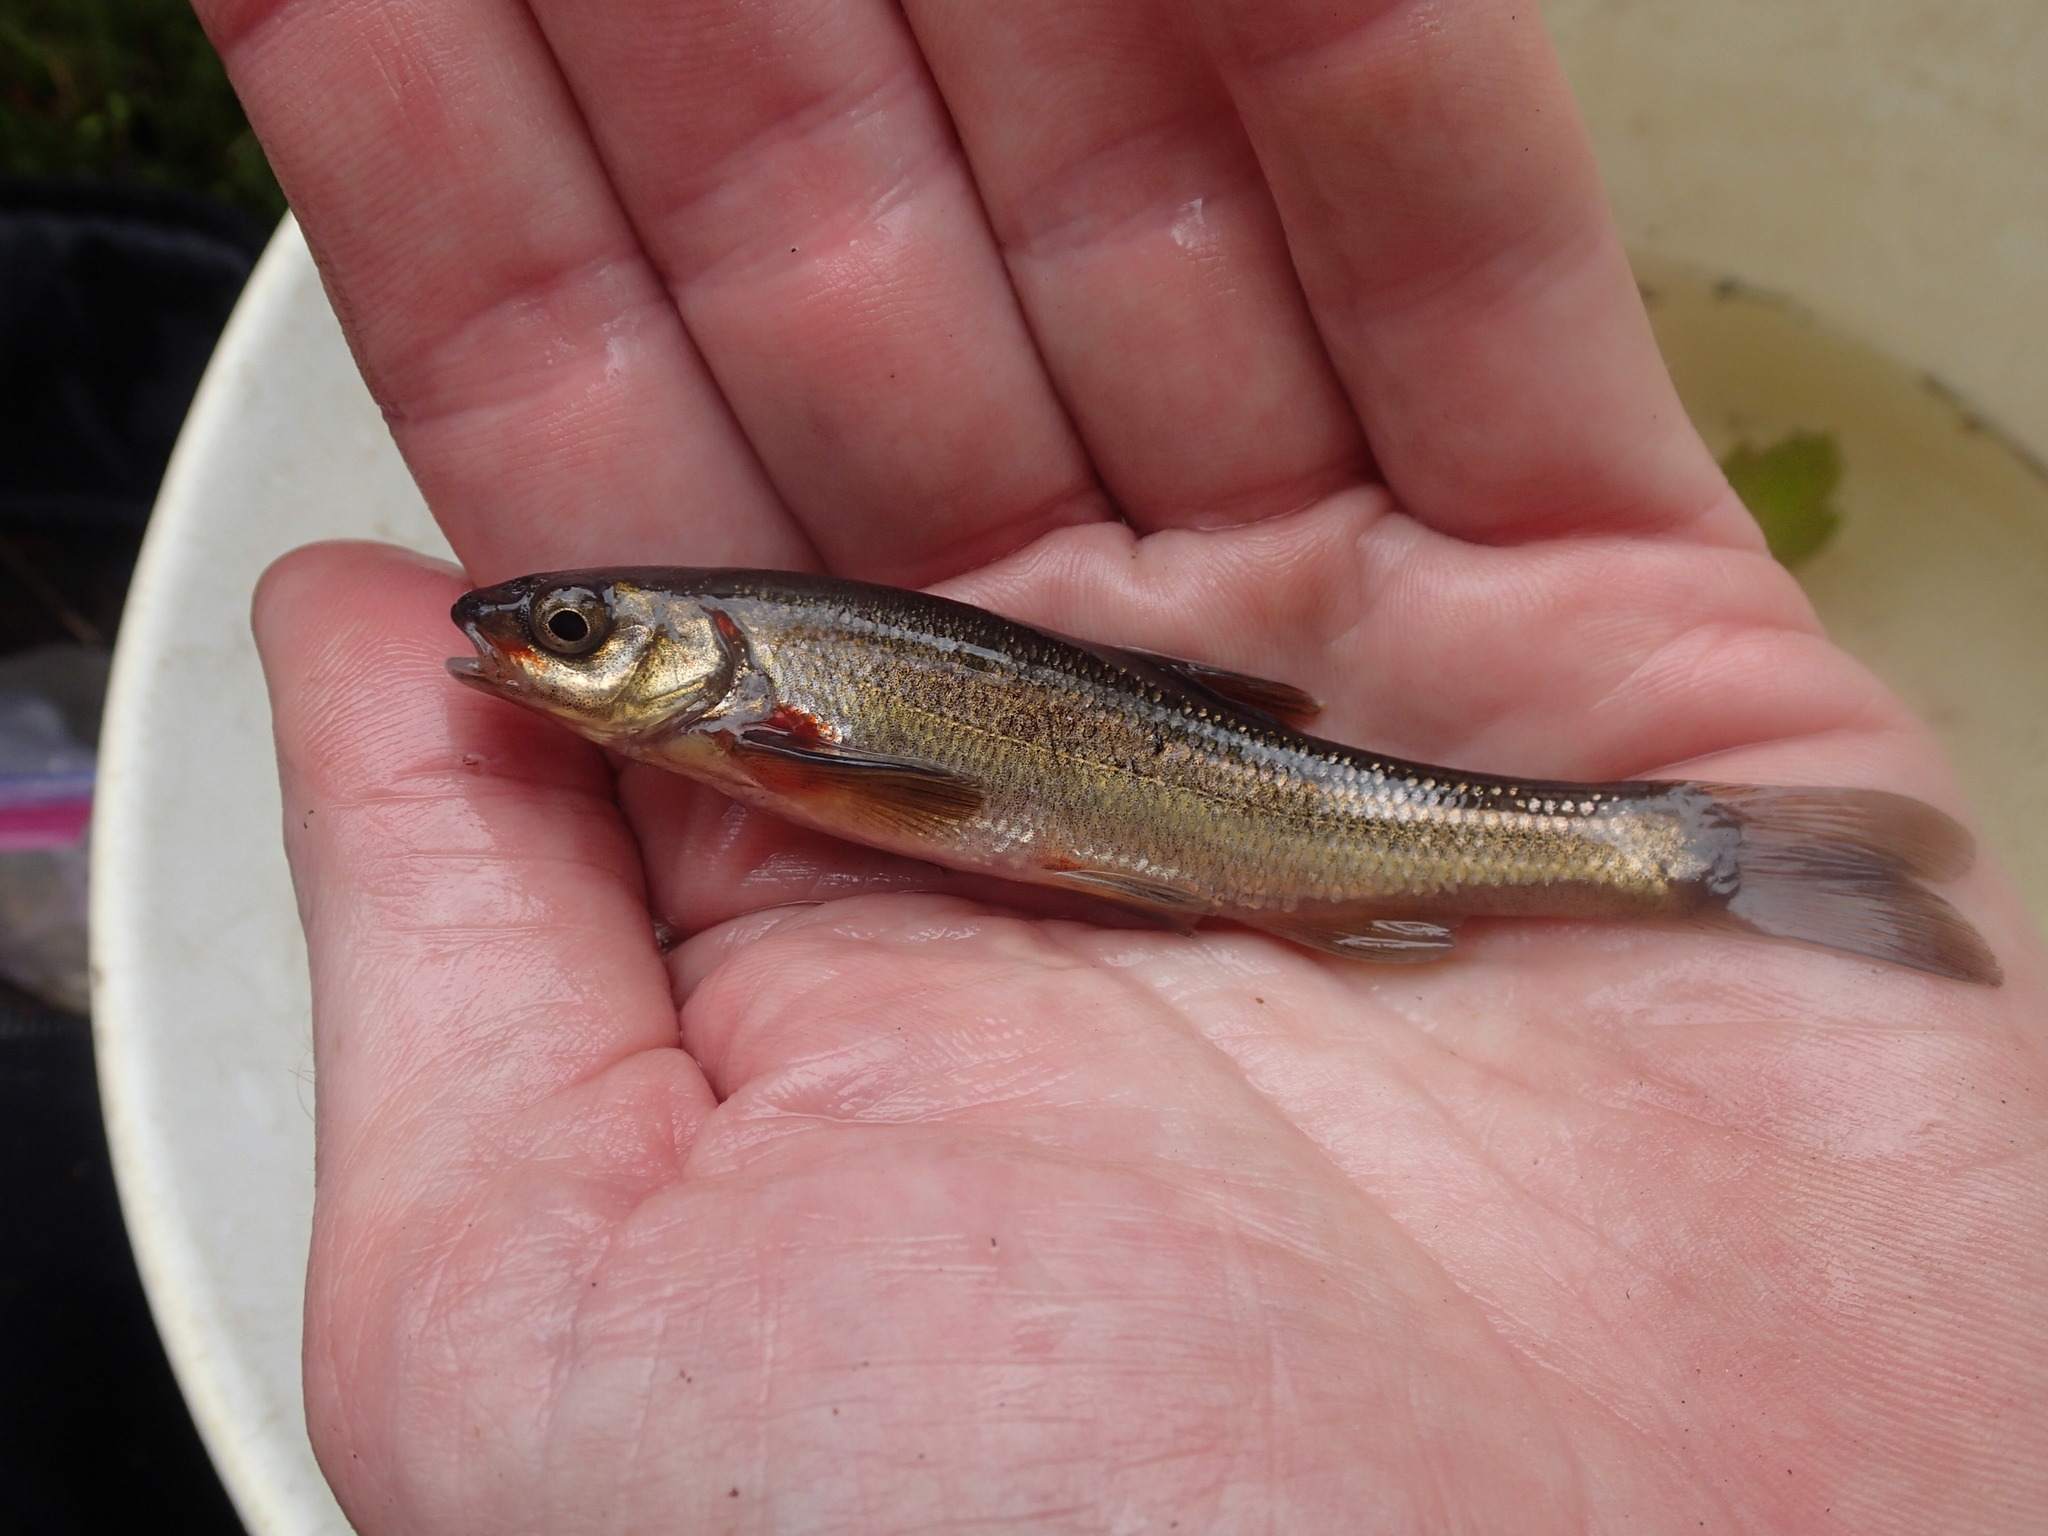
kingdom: Animalia
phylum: Chordata
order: Cypriniformes
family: Cyprinidae
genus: Couesius
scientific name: Couesius plumbeus
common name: Lake chub
